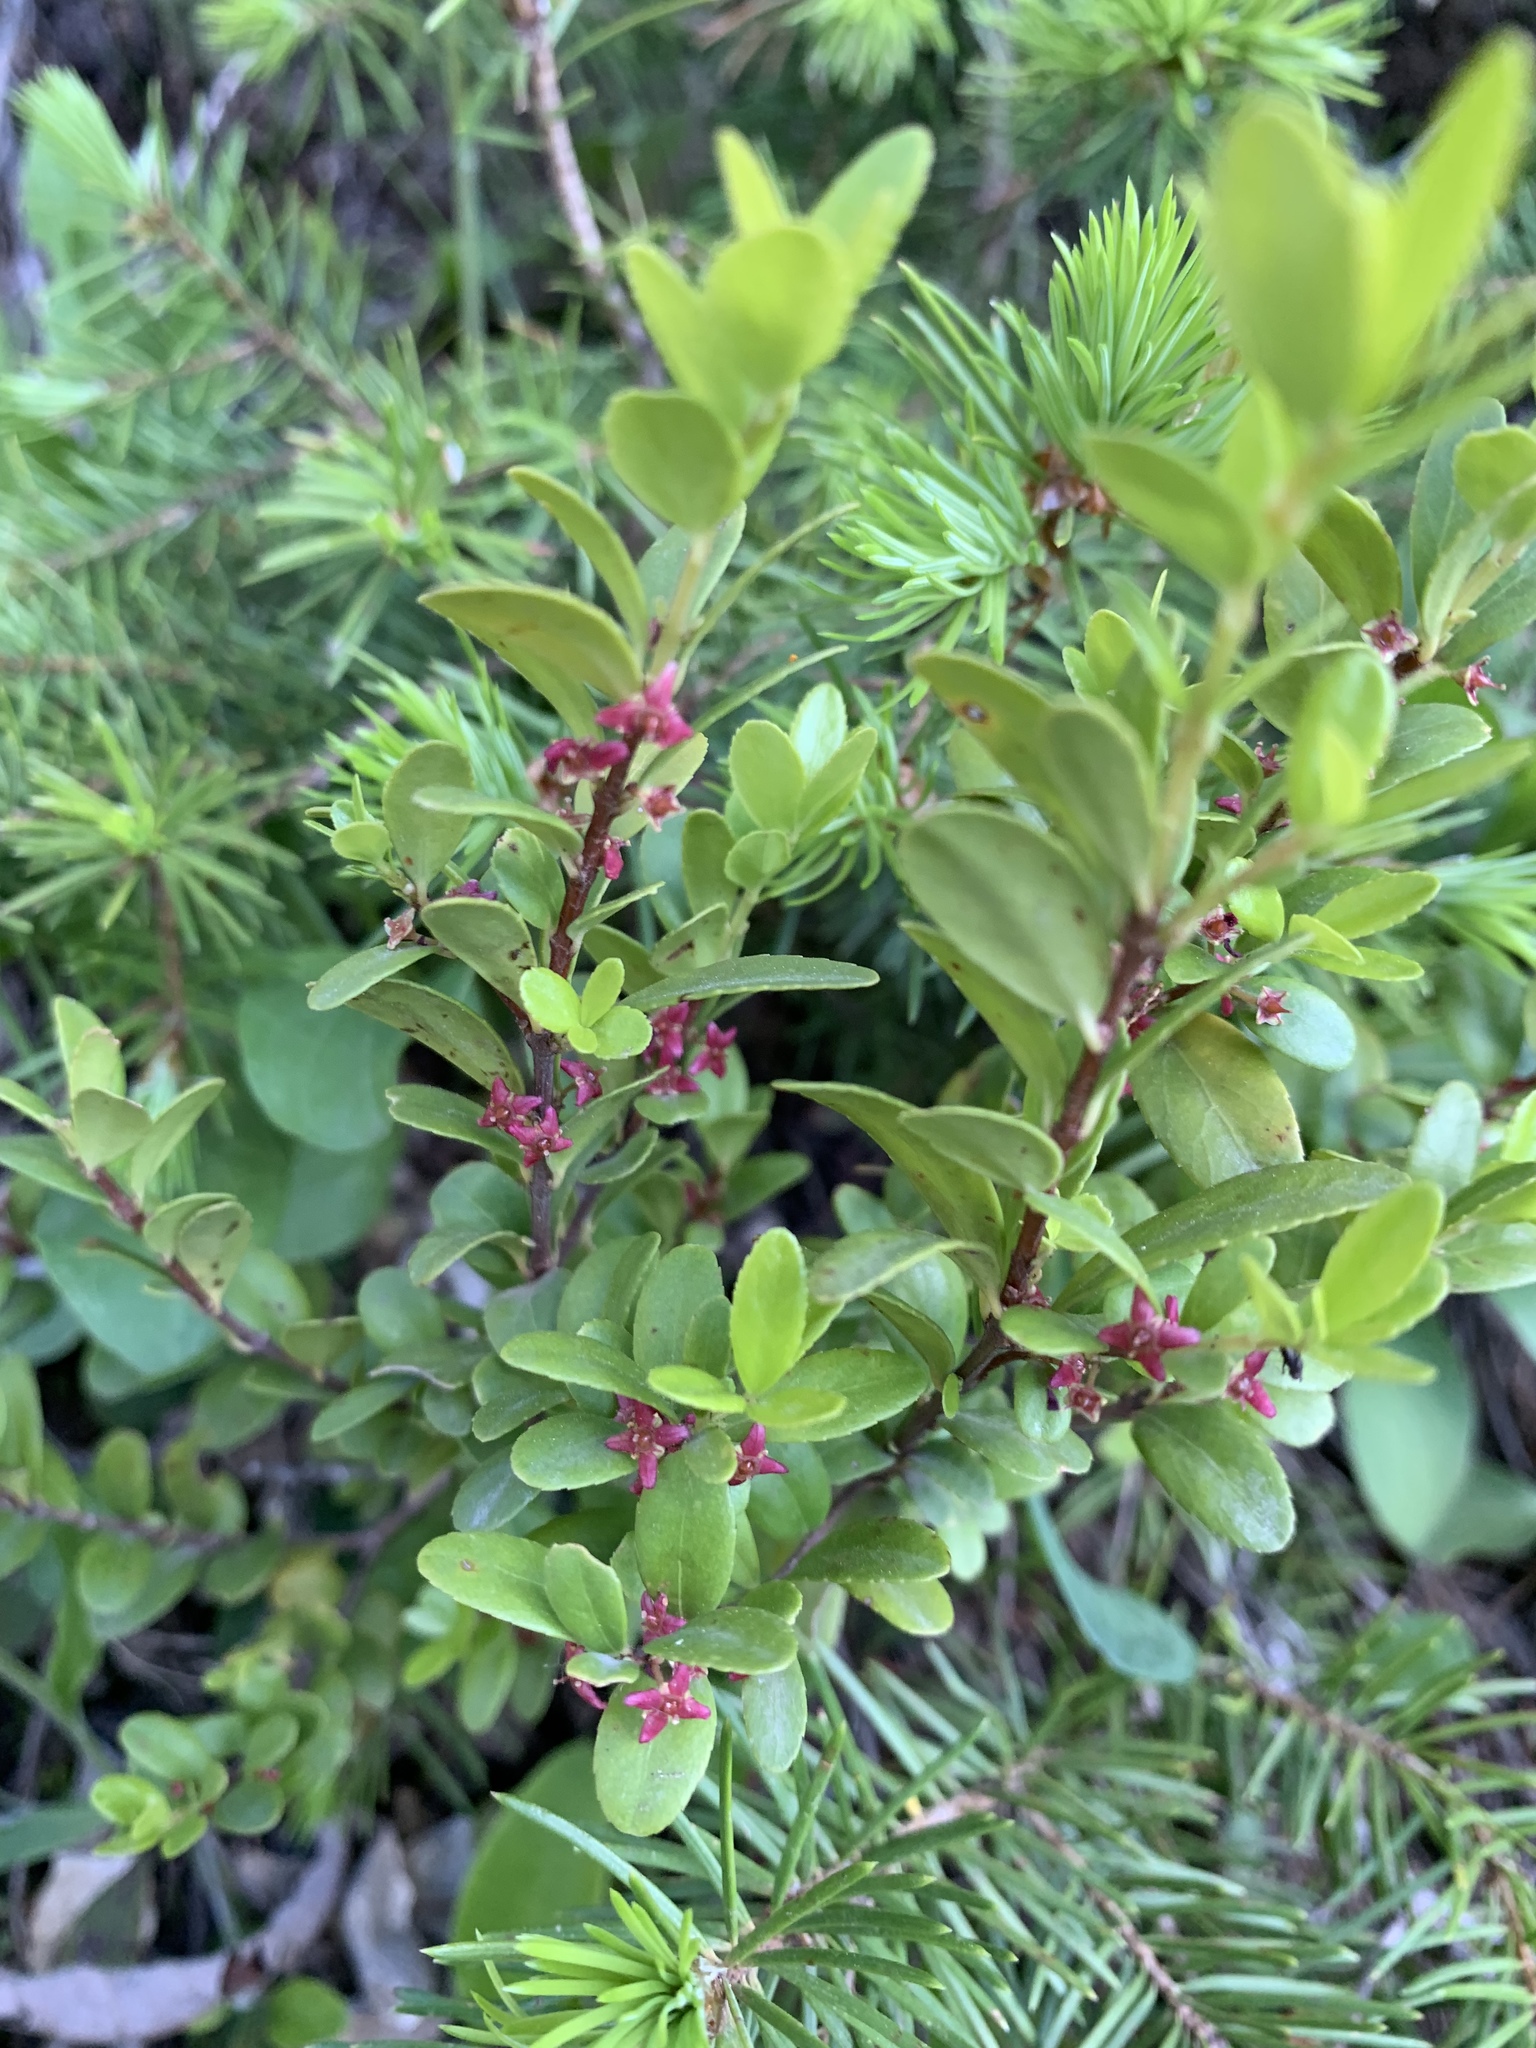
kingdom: Plantae
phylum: Tracheophyta
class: Magnoliopsida
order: Celastrales
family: Celastraceae
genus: Paxistima
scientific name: Paxistima myrsinites
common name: Mountain-lover
